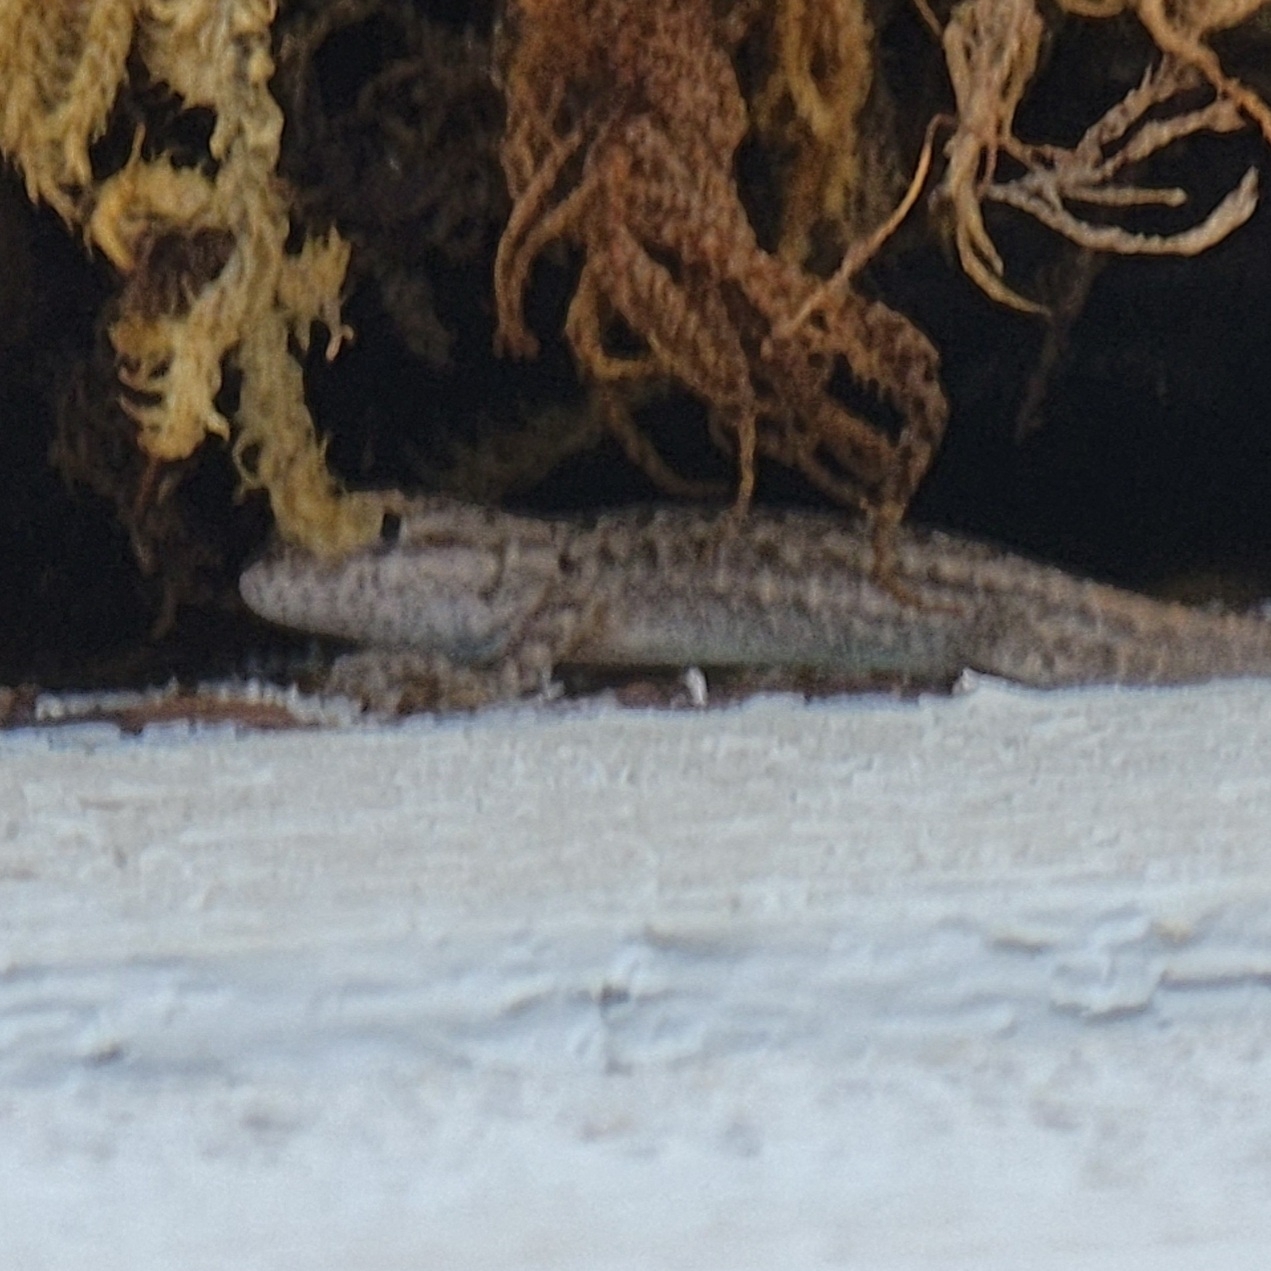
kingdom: Animalia
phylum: Chordata
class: Squamata
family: Phrynosomatidae
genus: Sceloporus
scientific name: Sceloporus occidentalis
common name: Western fence lizard
